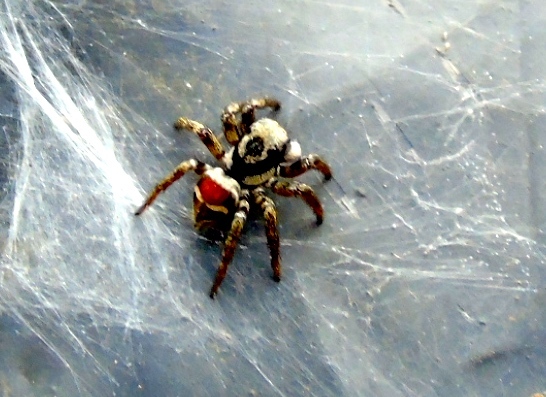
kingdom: Animalia
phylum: Arthropoda
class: Arachnida
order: Araneae
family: Salticidae
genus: Corythalia
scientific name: Corythalia
